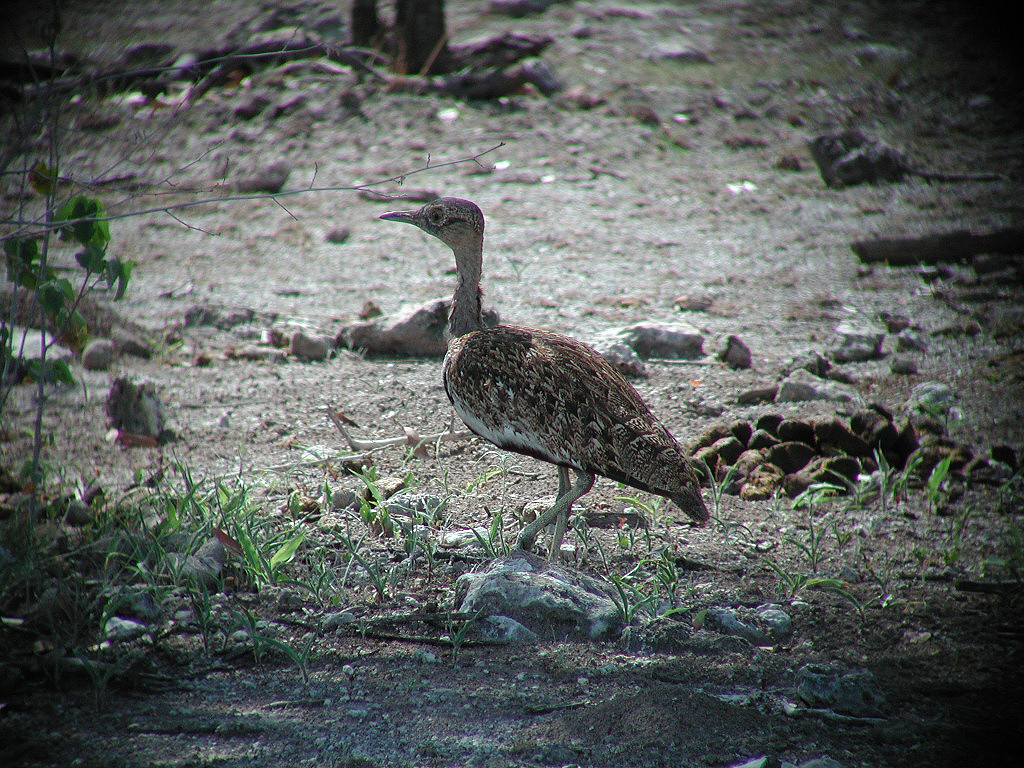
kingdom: Animalia
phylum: Chordata
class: Aves
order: Otidiformes
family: Otididae
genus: Lophotis
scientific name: Lophotis ruficrista
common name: Red-crested korhaan
